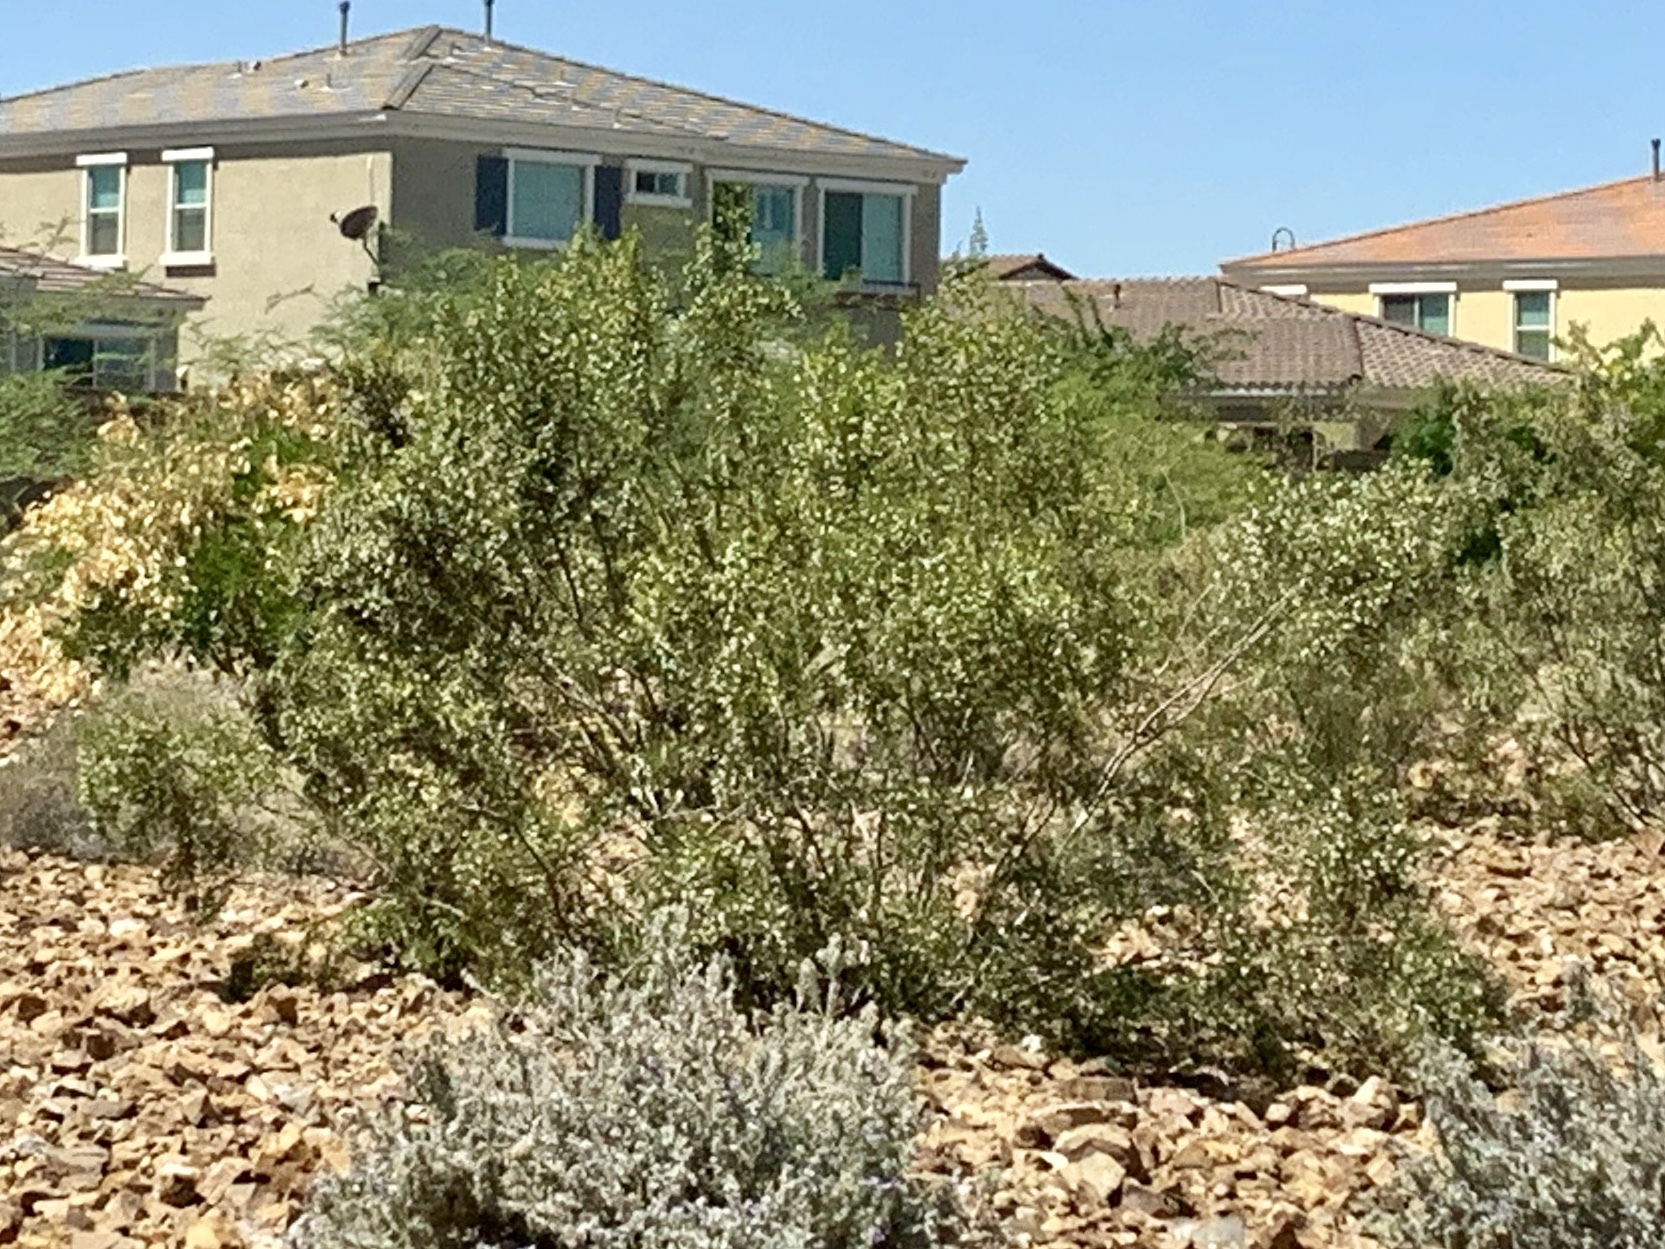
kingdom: Plantae
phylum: Tracheophyta
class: Magnoliopsida
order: Zygophyllales
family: Zygophyllaceae
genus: Larrea
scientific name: Larrea tridentata
